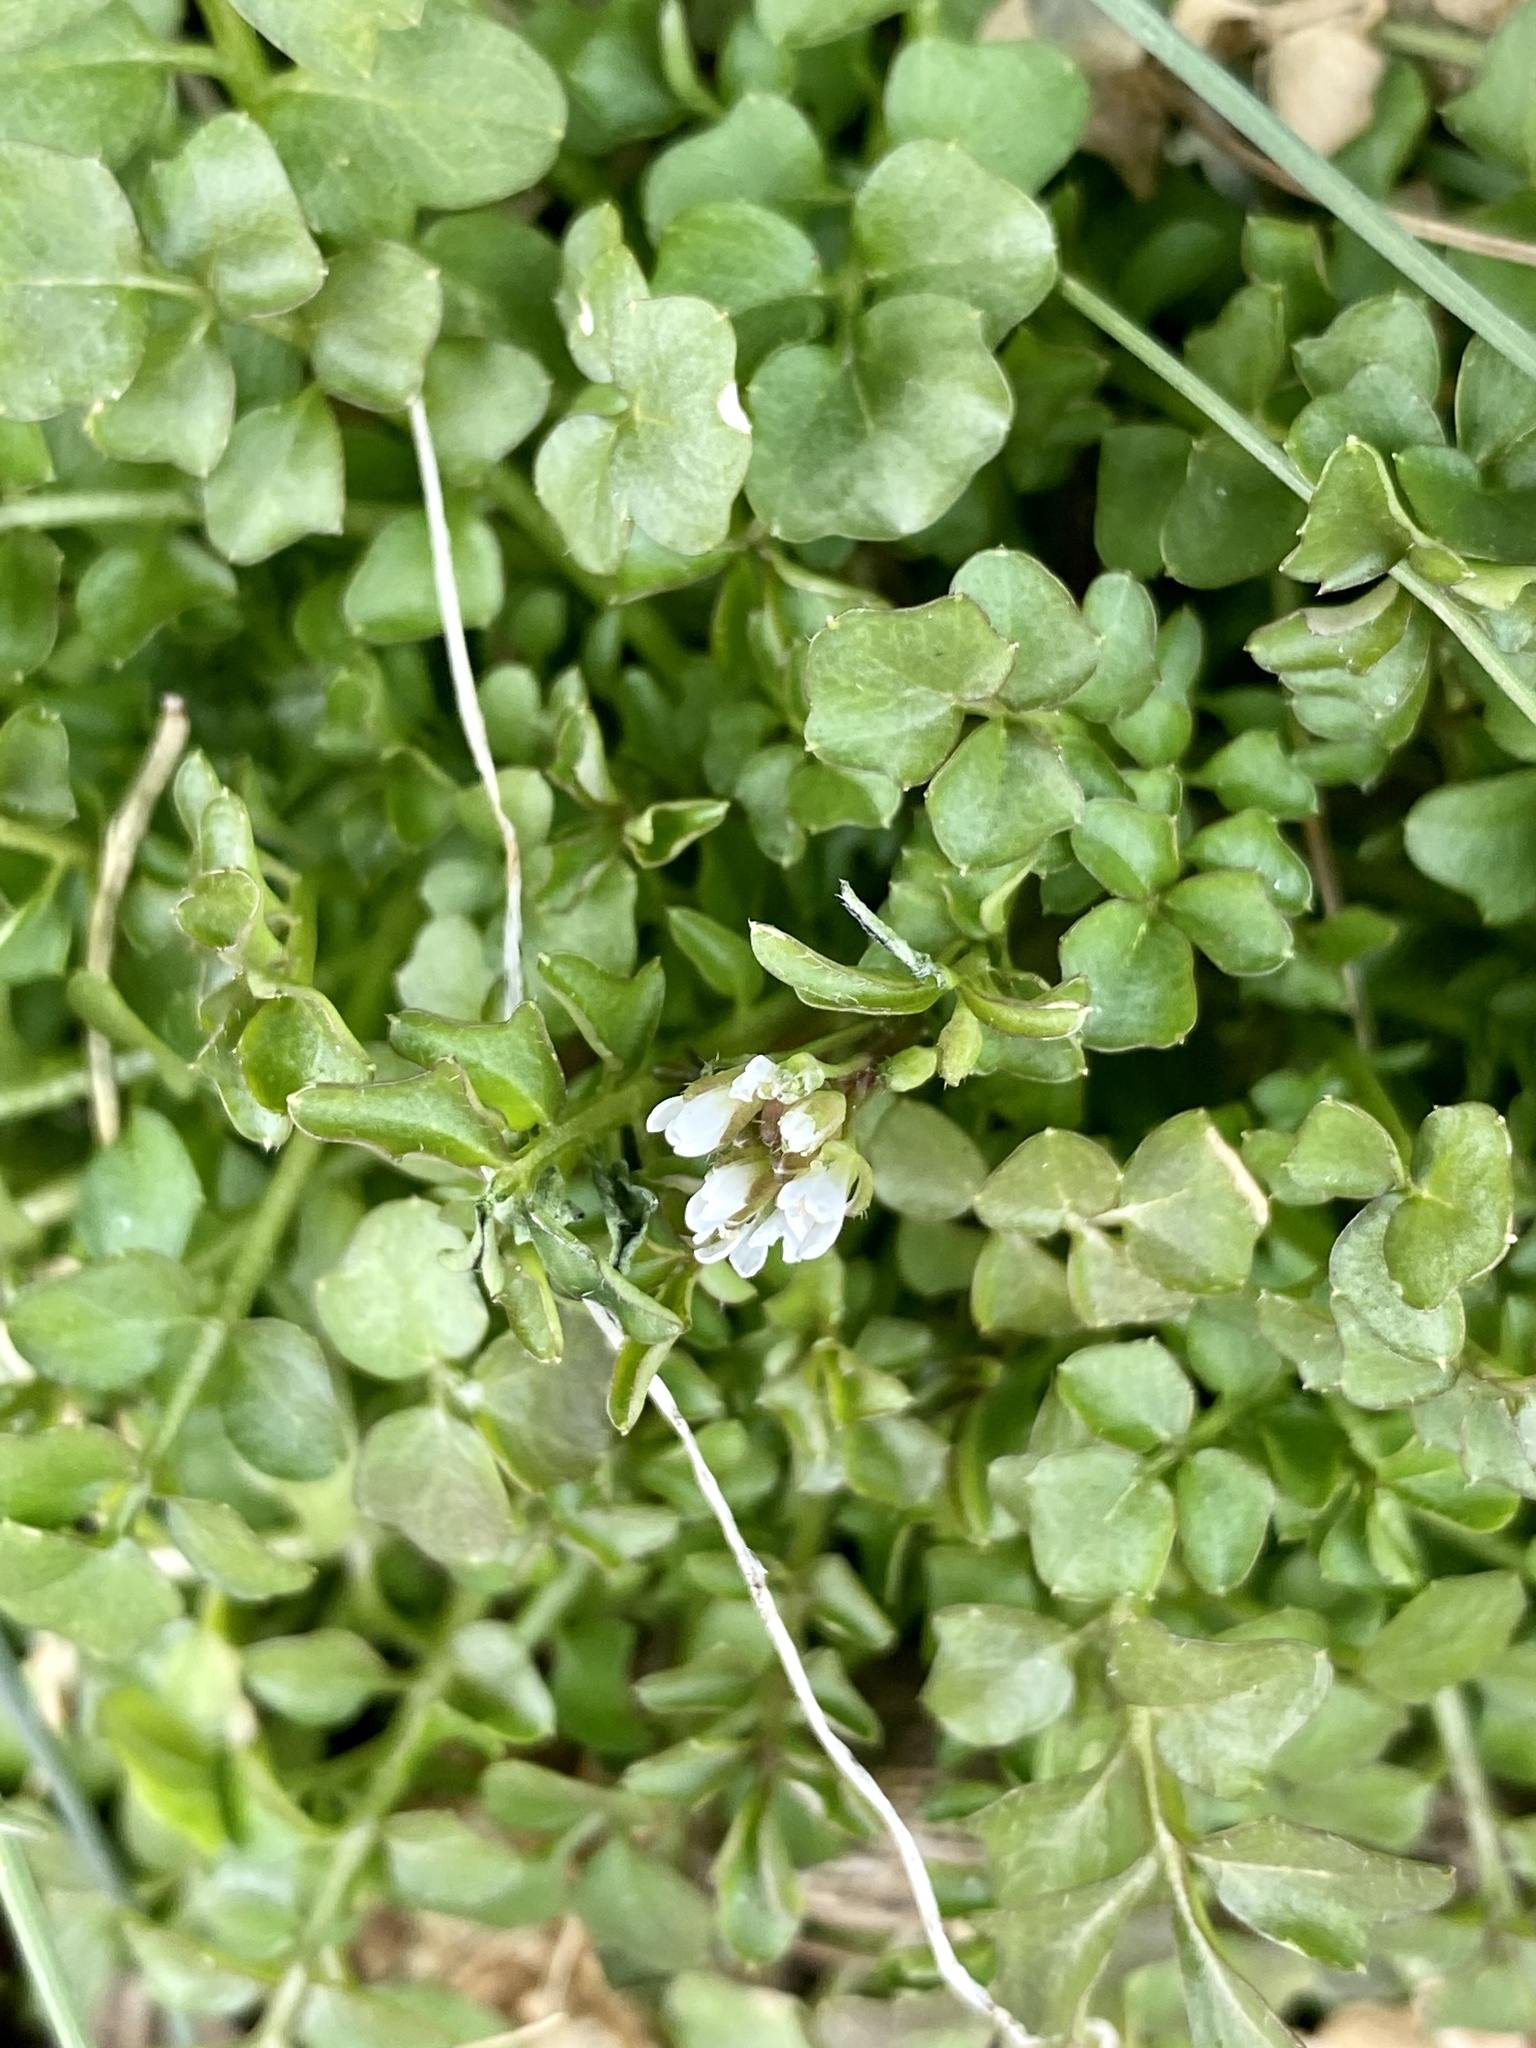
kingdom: Plantae
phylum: Tracheophyta
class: Magnoliopsida
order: Brassicales
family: Brassicaceae
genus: Cardamine
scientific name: Cardamine hirsuta
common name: Hairy bittercress
